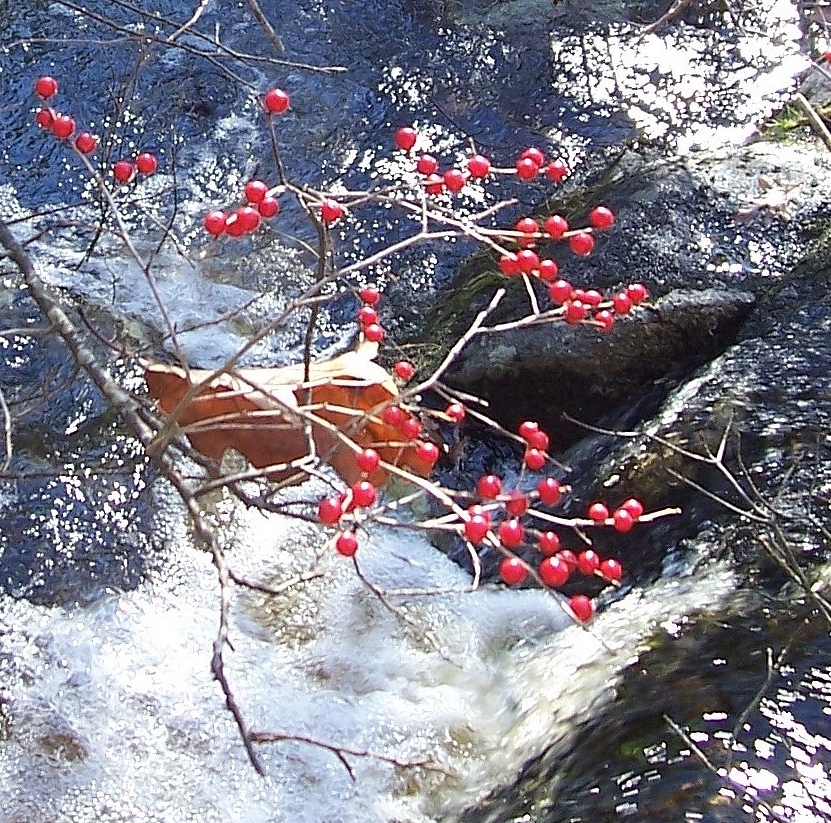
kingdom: Plantae
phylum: Tracheophyta
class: Magnoliopsida
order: Aquifoliales
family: Aquifoliaceae
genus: Ilex
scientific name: Ilex verticillata
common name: Virginia winterberry
